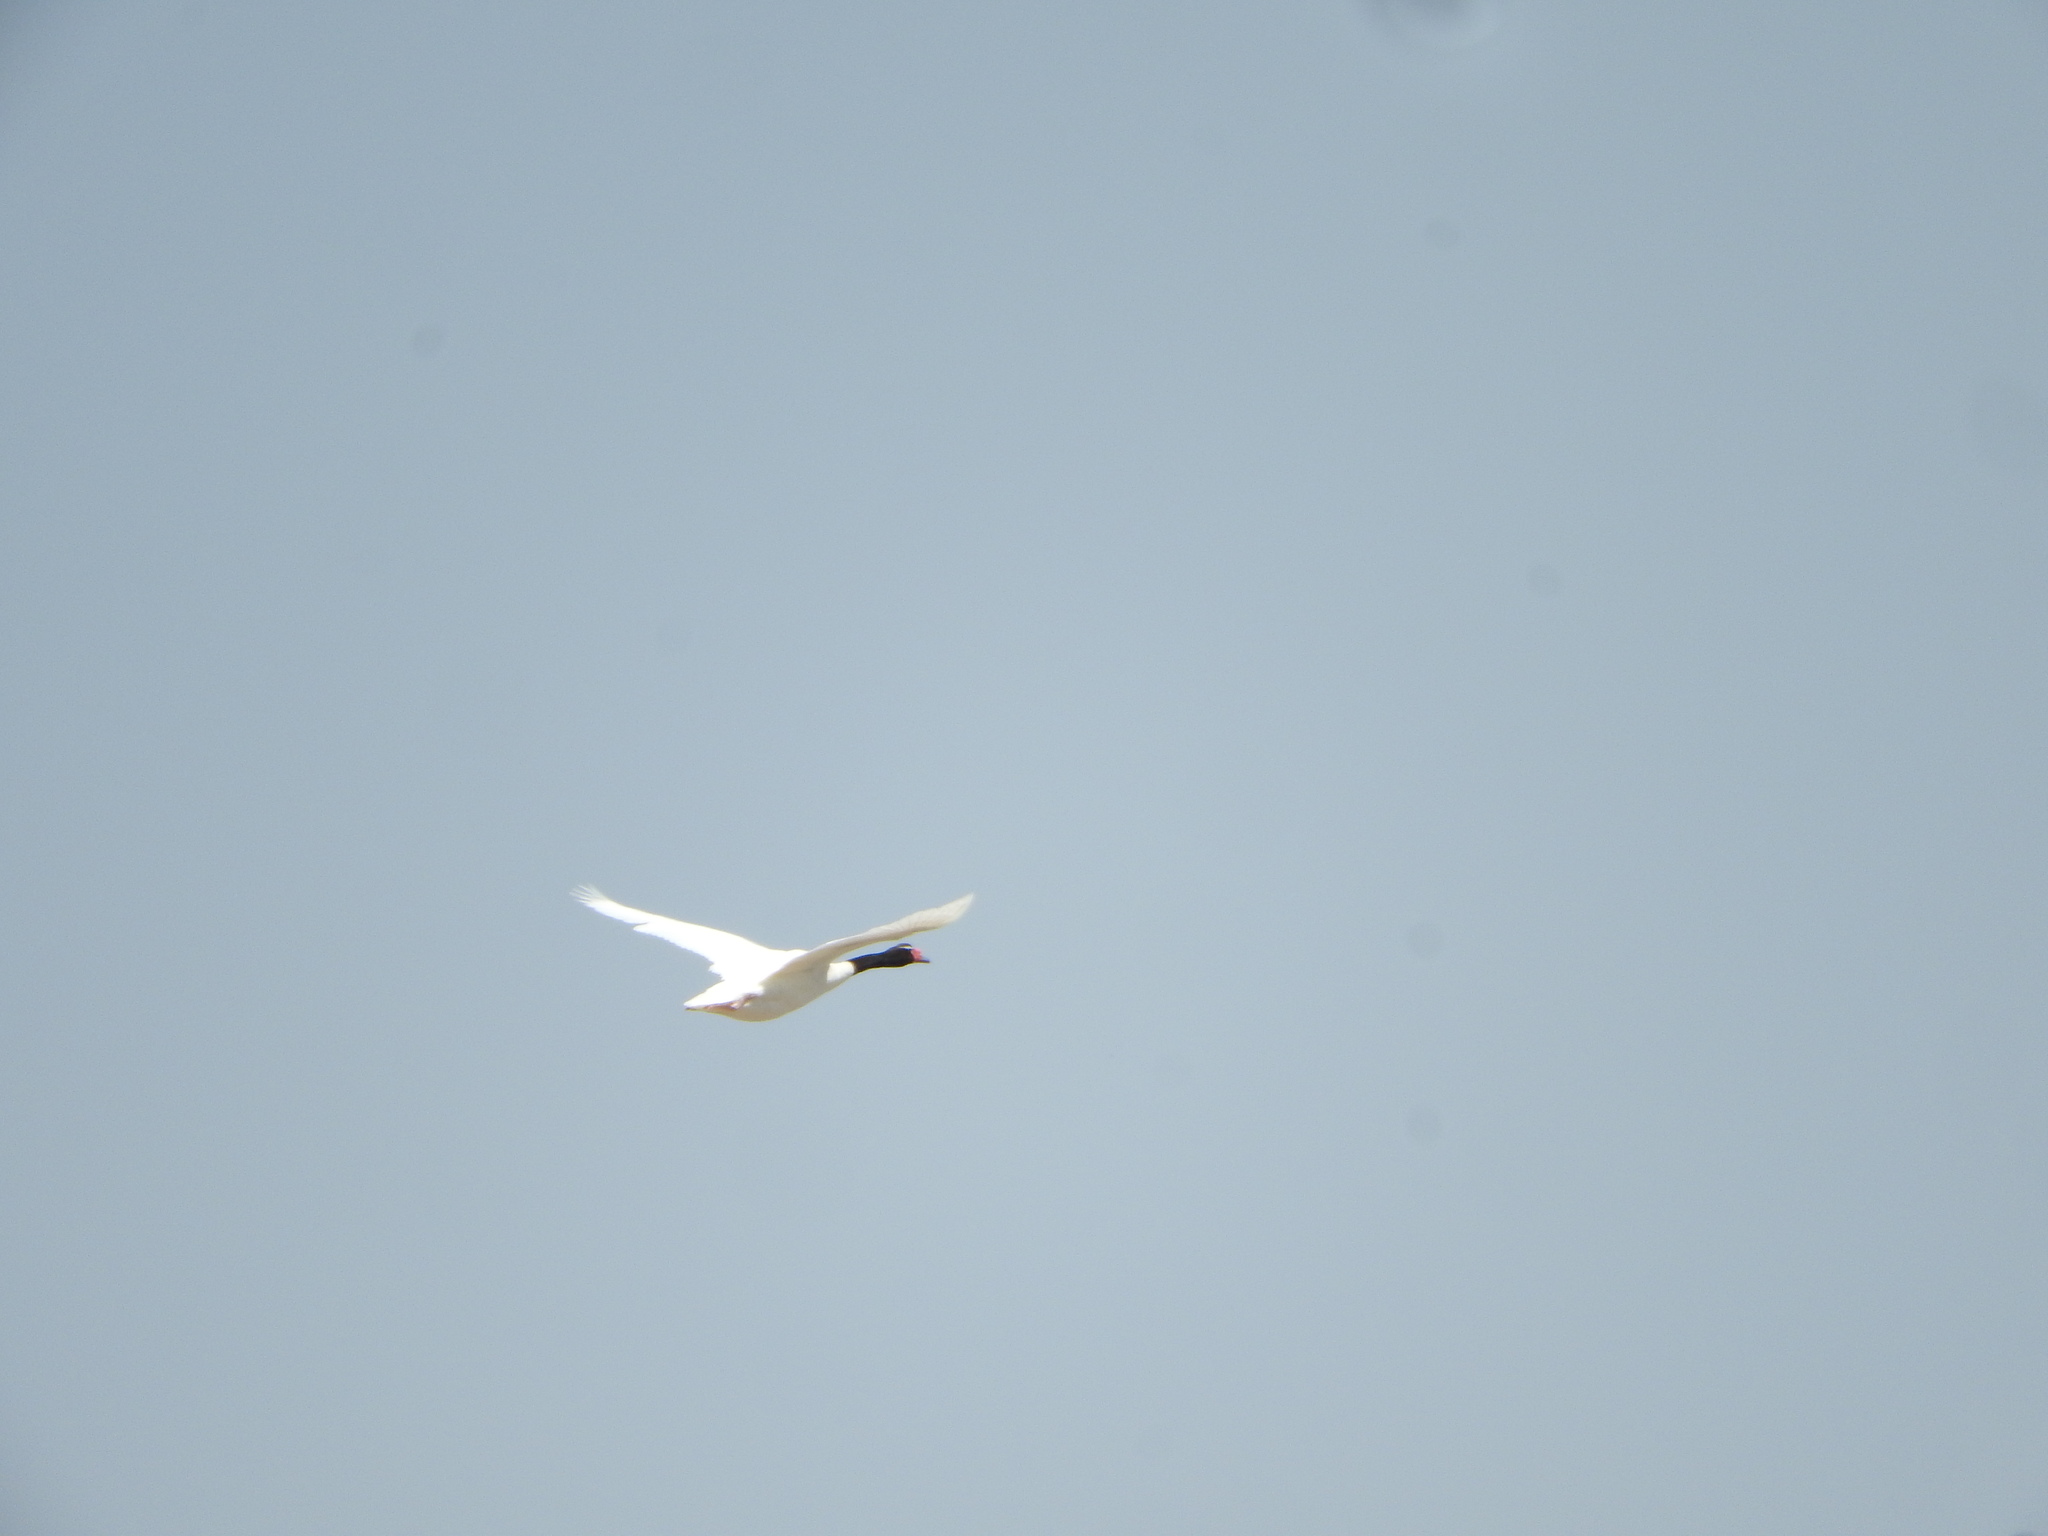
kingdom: Animalia
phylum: Chordata
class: Aves
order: Anseriformes
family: Anatidae
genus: Cygnus
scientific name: Cygnus melancoryphus
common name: Black-necked swan
